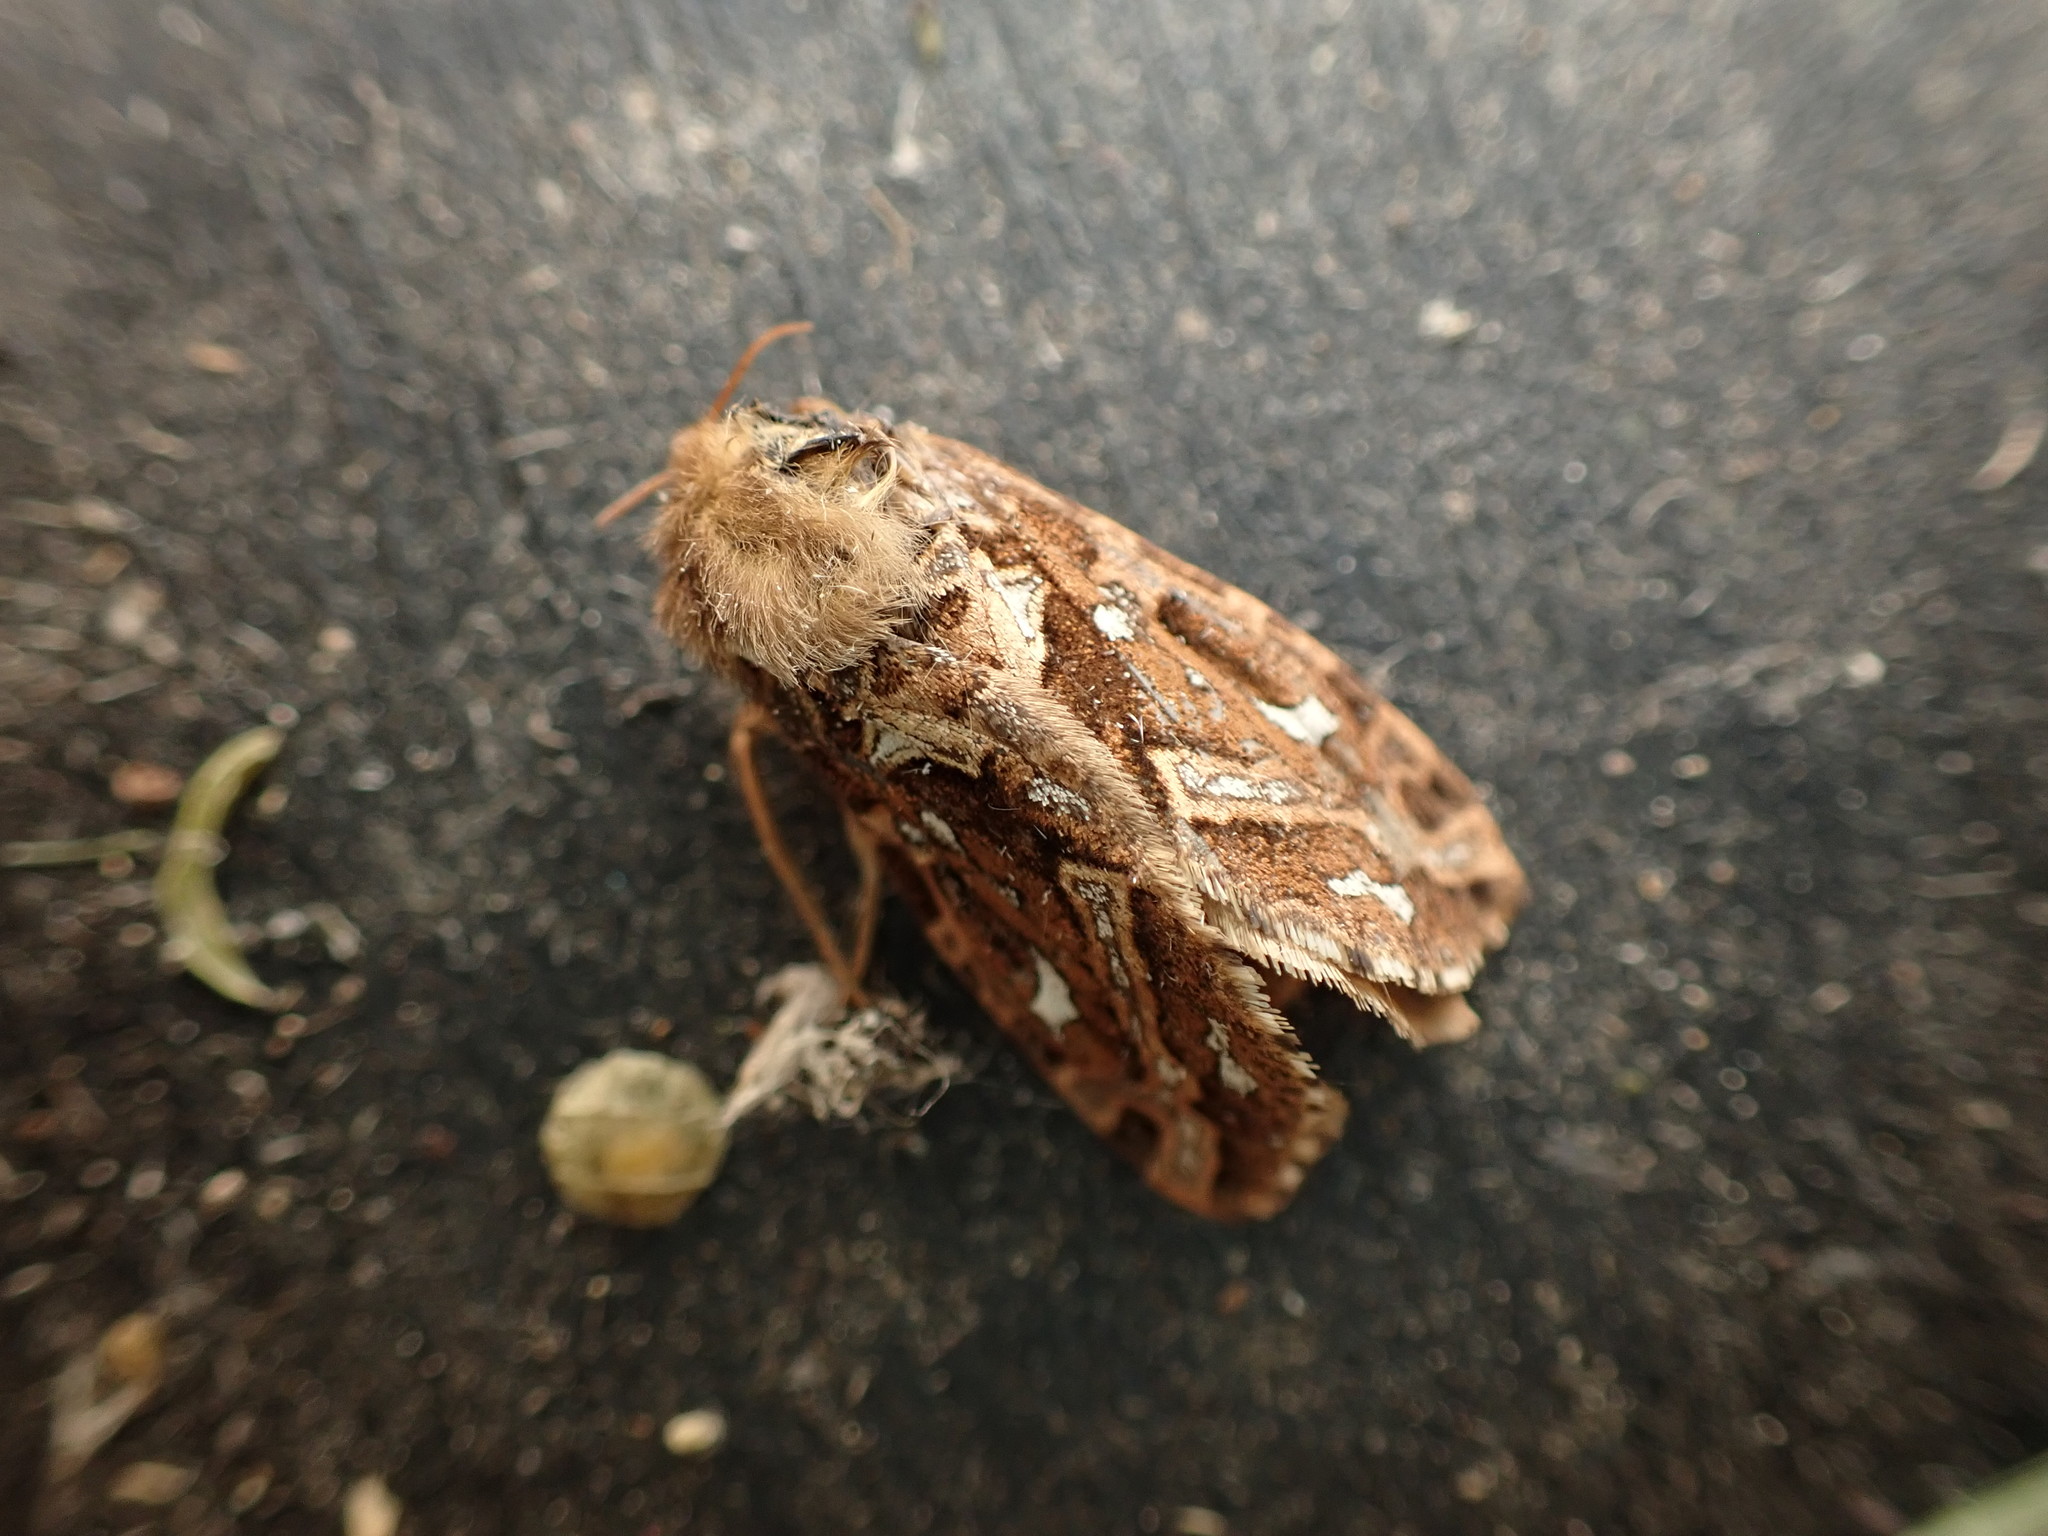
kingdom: Animalia
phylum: Arthropoda
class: Insecta
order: Lepidoptera
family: Hepialidae
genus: Korscheltellus
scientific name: Korscheltellus fusconebulosus
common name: Map-winged swift
